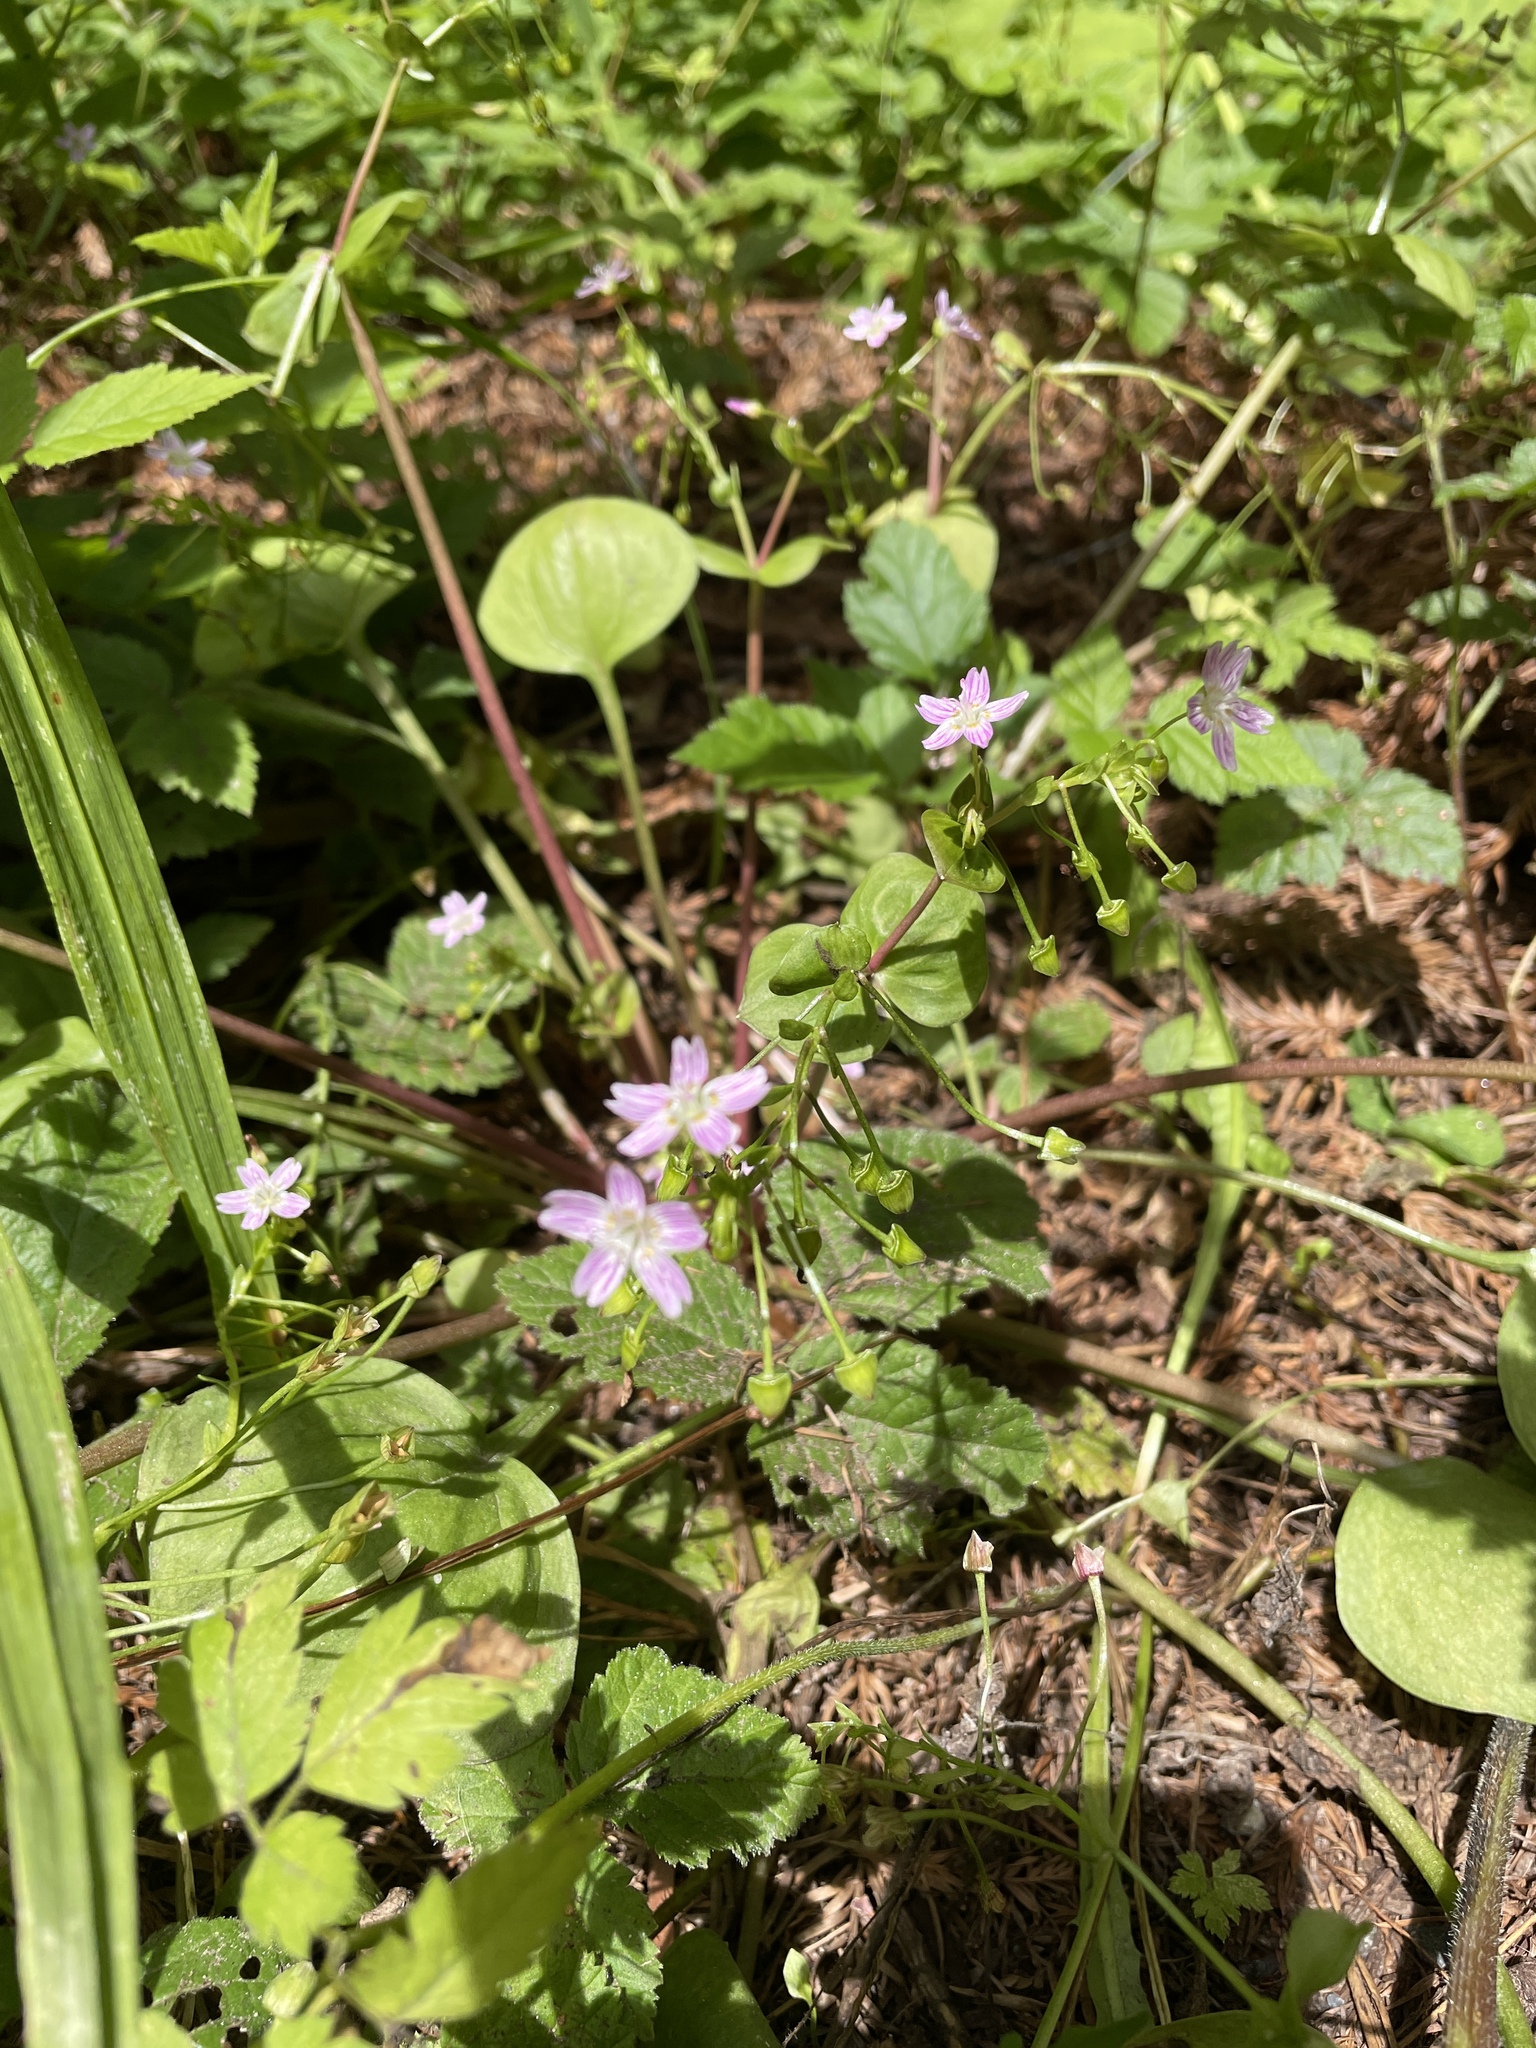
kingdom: Plantae
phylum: Tracheophyta
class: Magnoliopsida
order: Caryophyllales
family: Montiaceae
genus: Claytonia
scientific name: Claytonia sibirica
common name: Pink purslane
